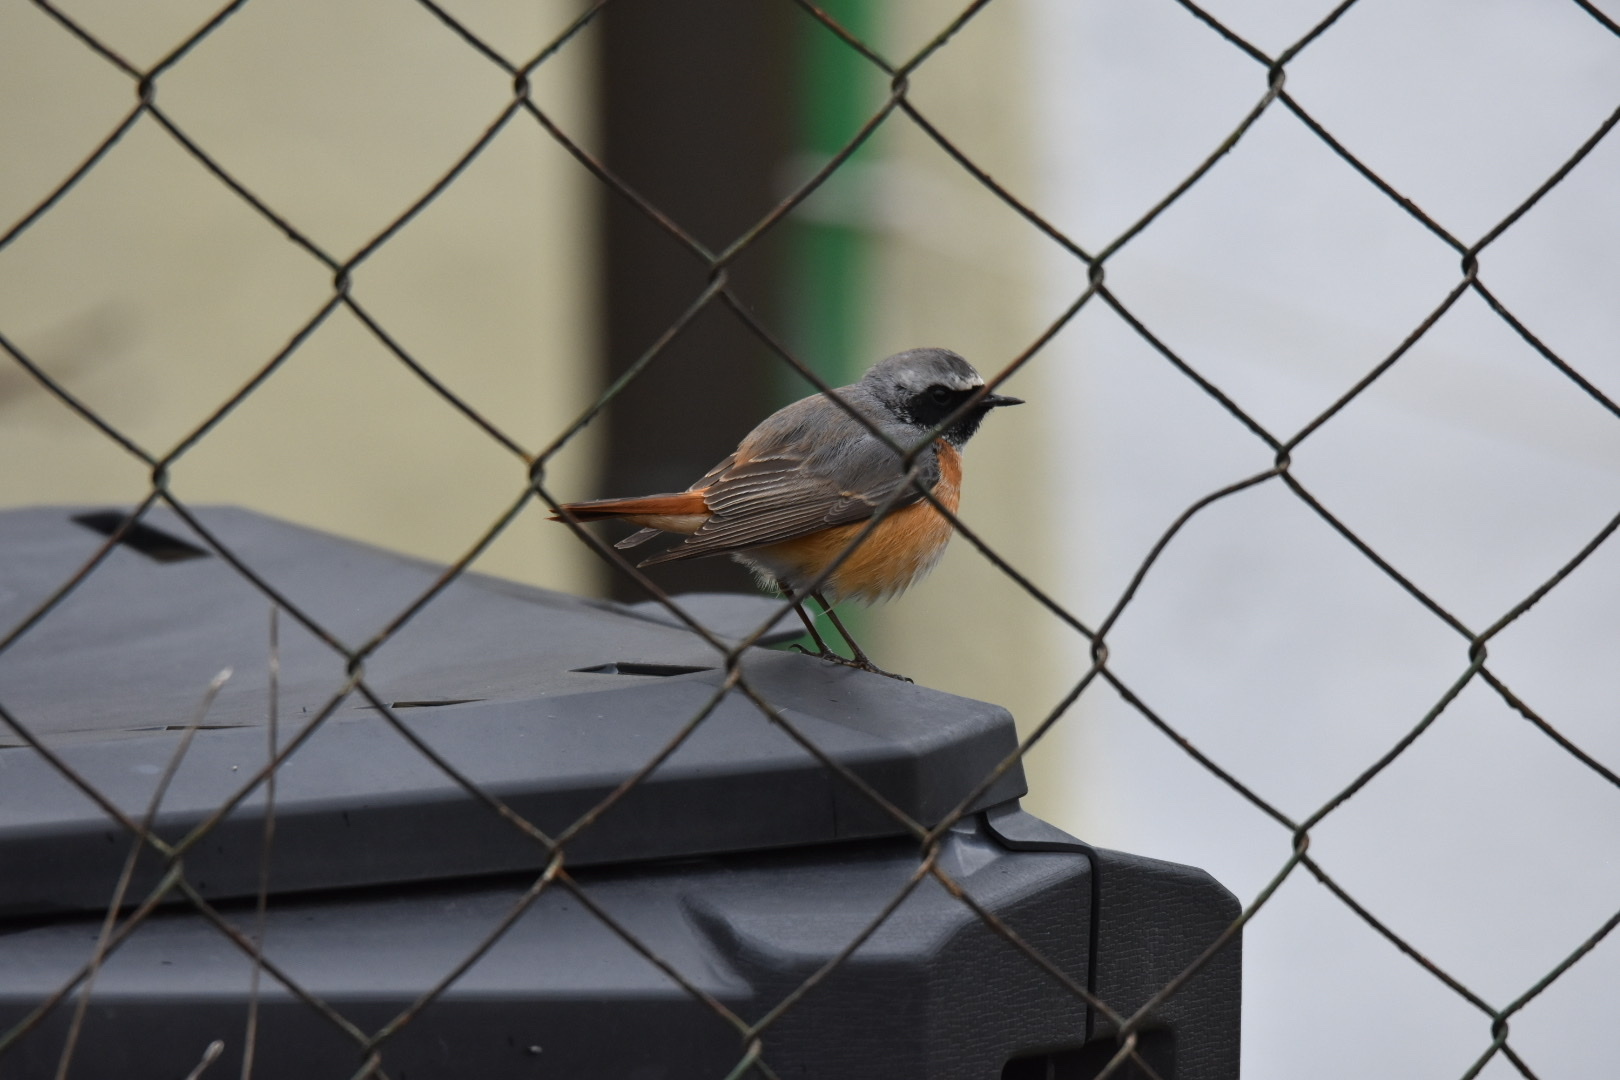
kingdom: Animalia
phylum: Chordata
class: Aves
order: Passeriformes
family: Muscicapidae
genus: Phoenicurus
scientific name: Phoenicurus phoenicurus
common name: Common redstart
